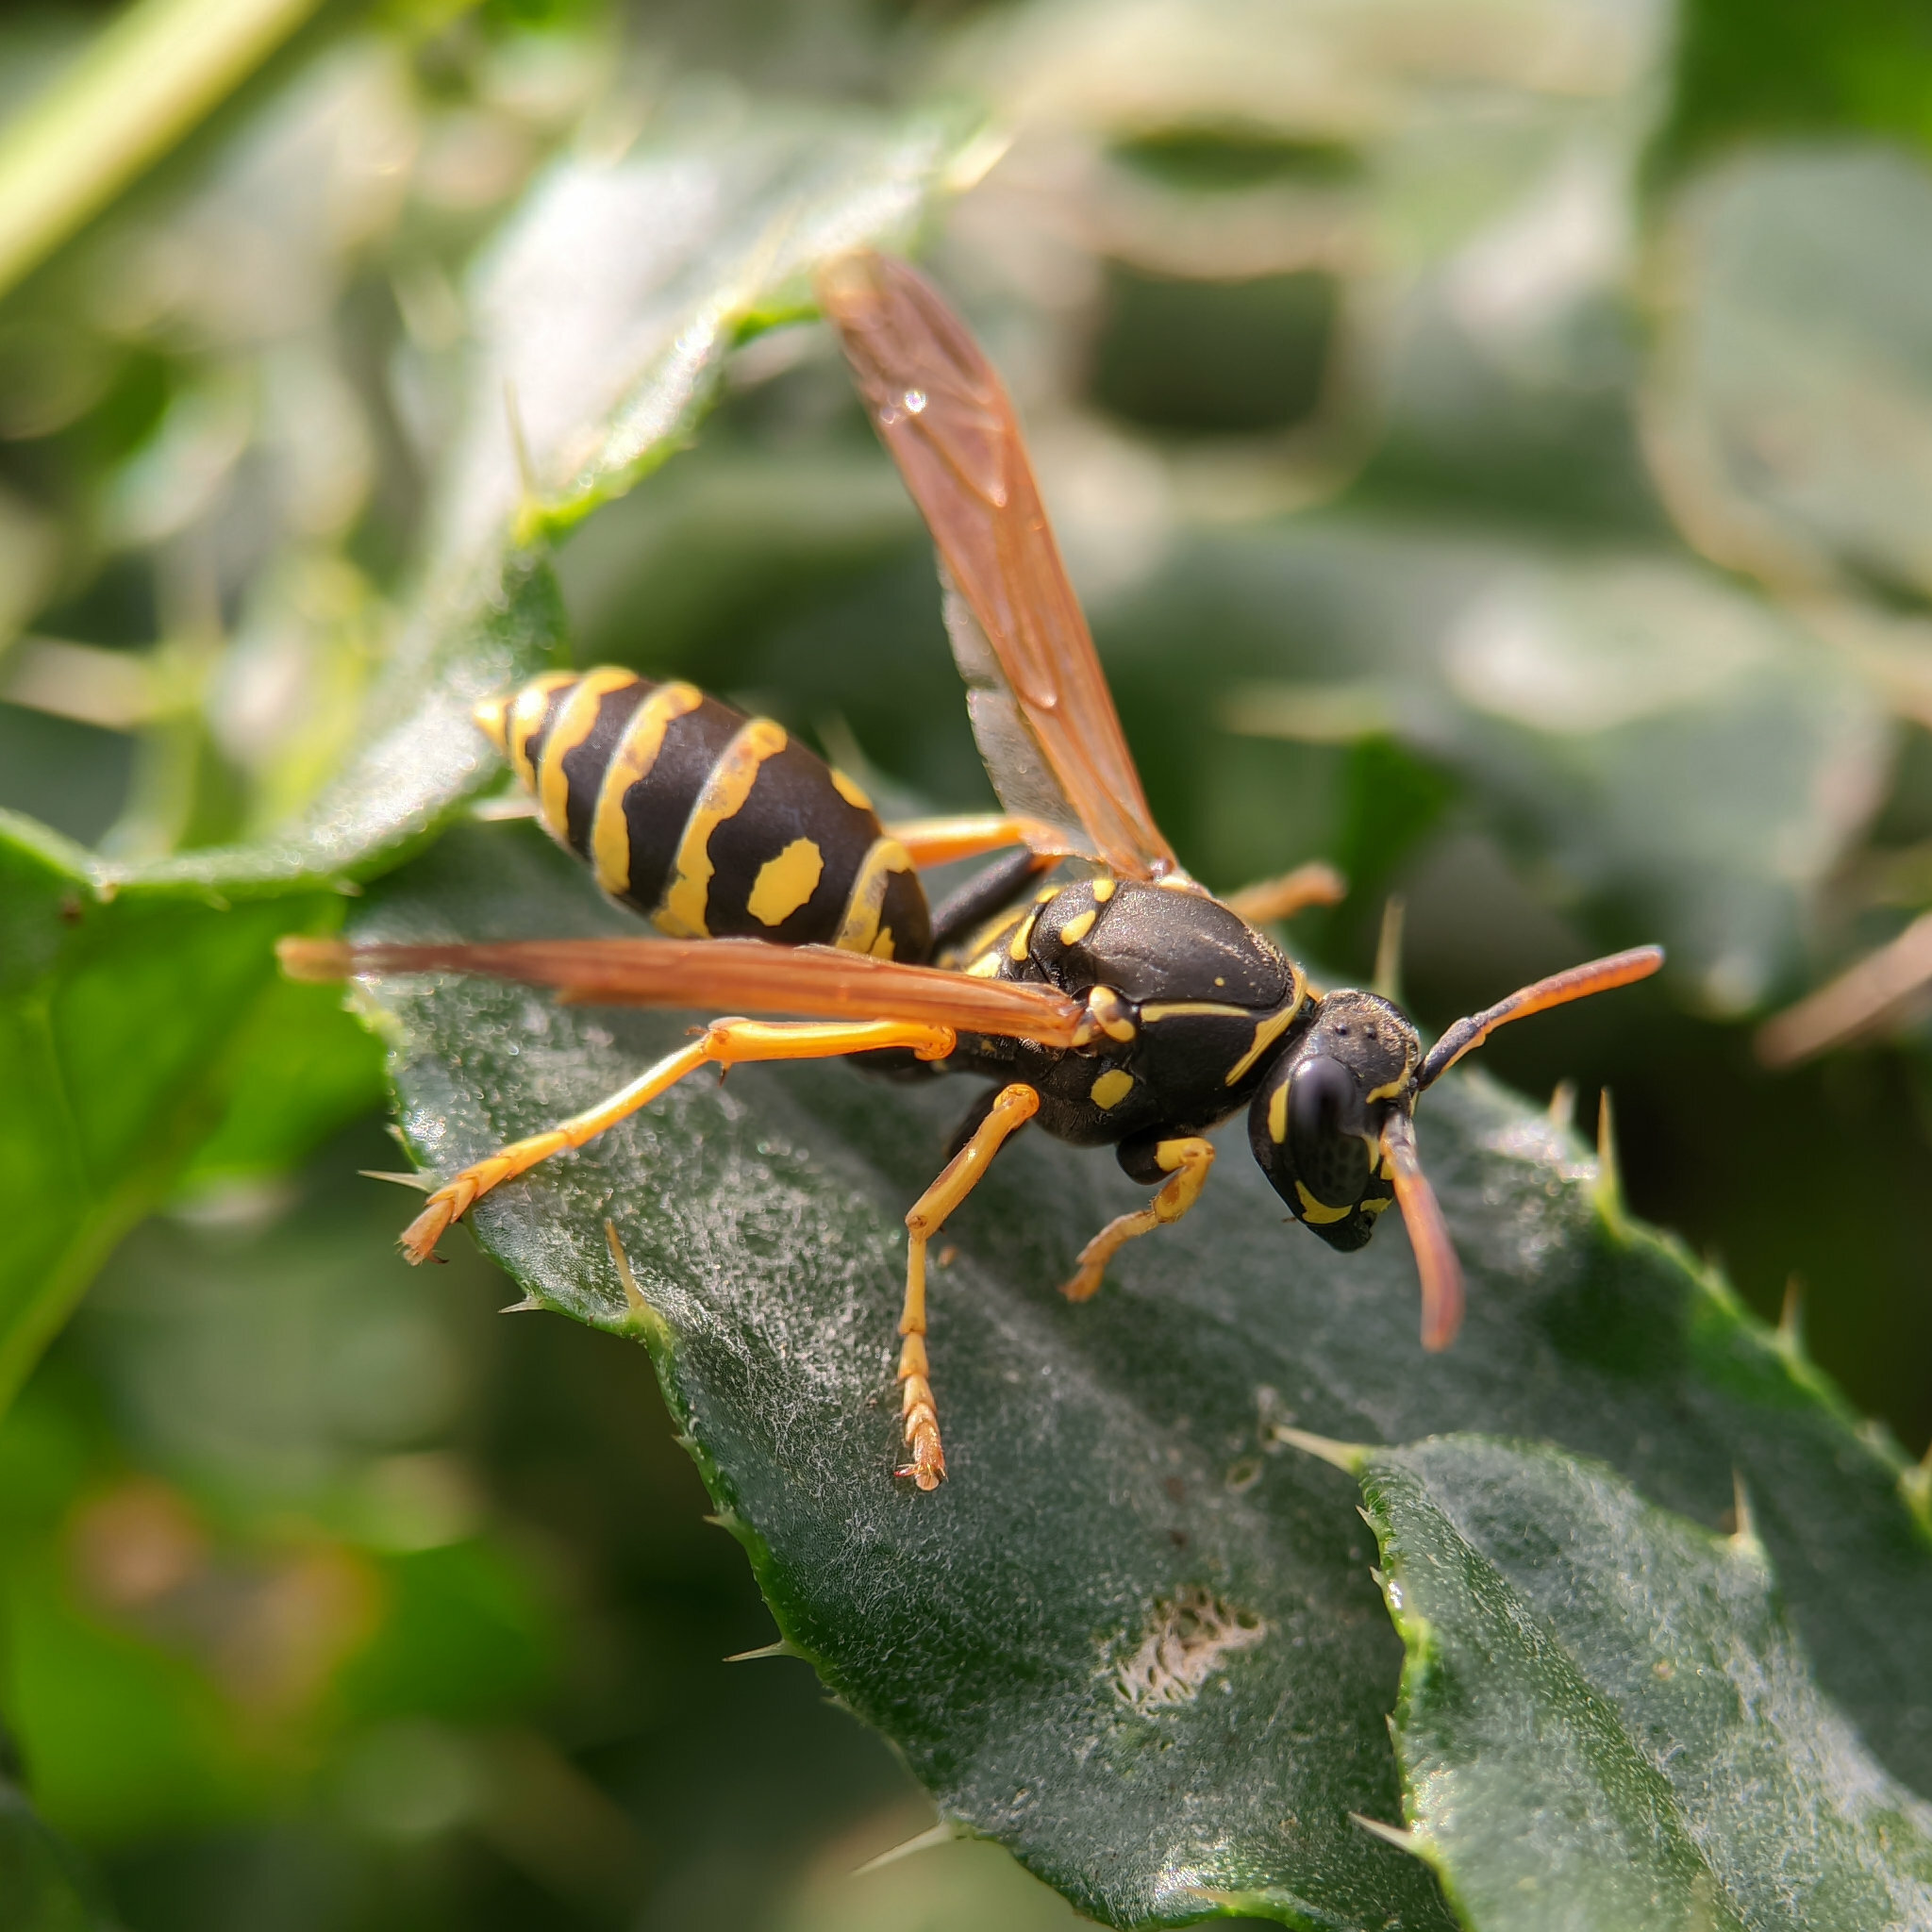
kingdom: Animalia
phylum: Arthropoda
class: Insecta
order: Hymenoptera
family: Eumenidae
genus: Polistes
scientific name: Polistes dominula
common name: Paper wasp
